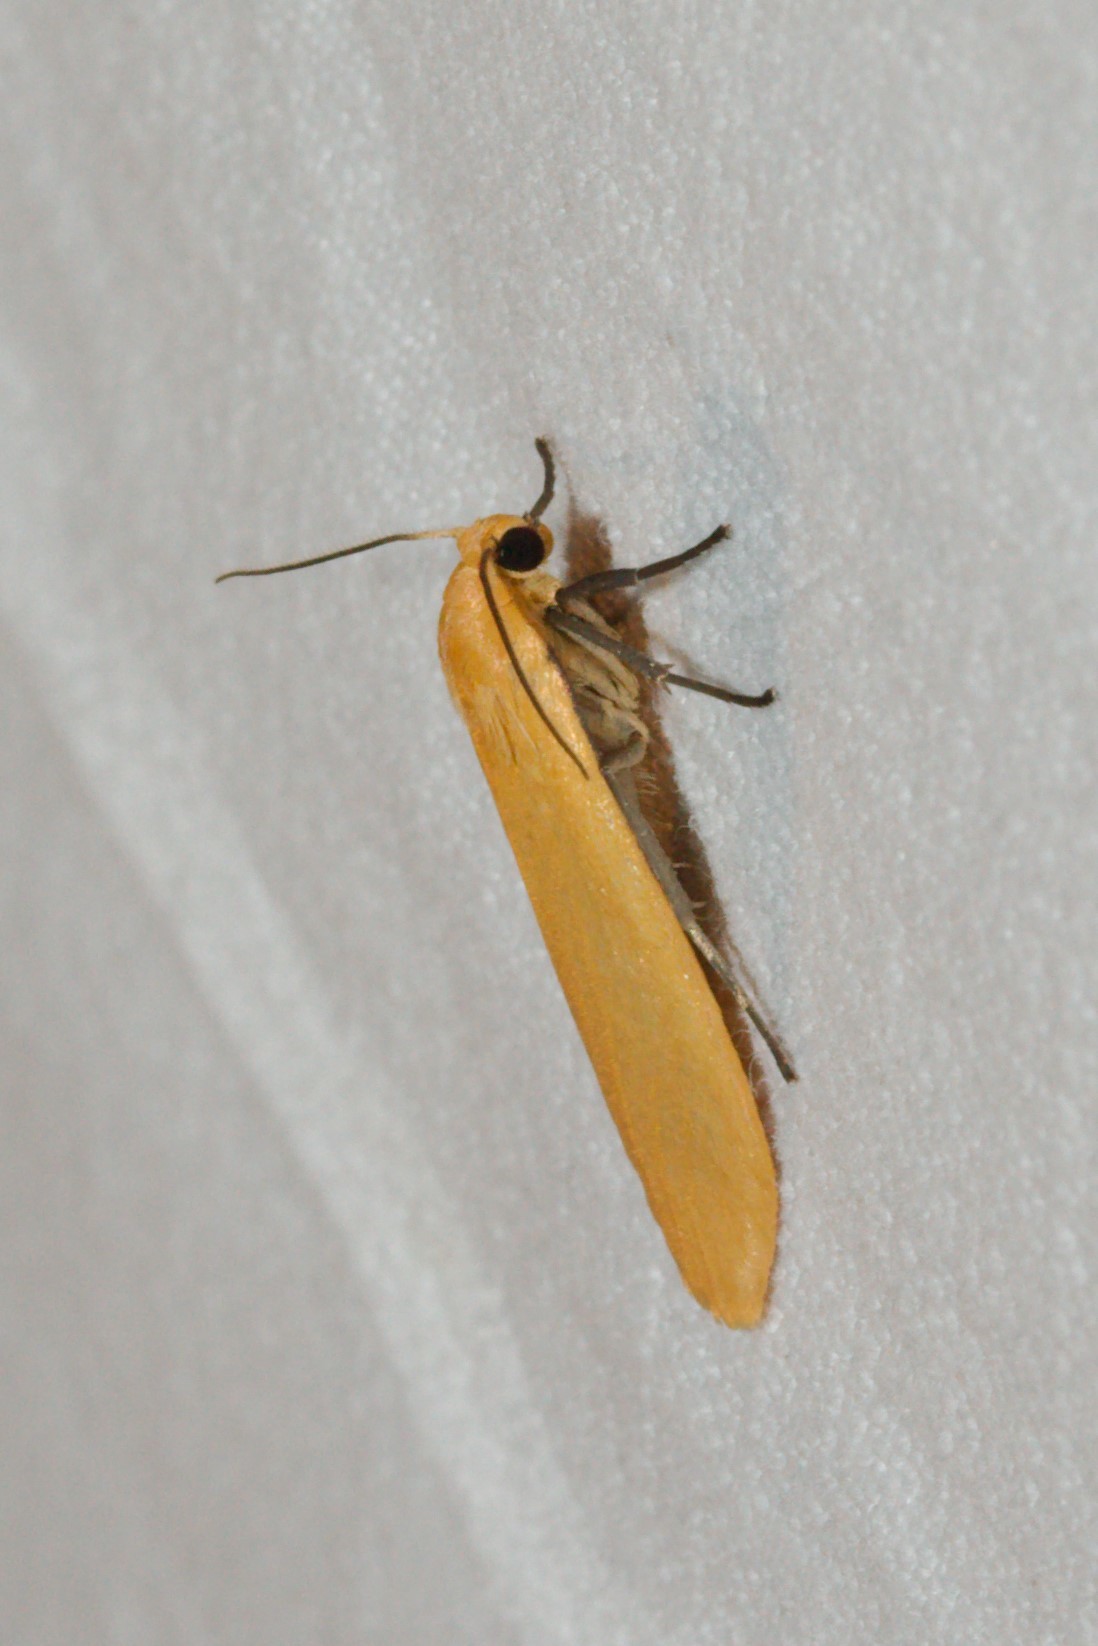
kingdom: Animalia
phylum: Arthropoda
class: Insecta
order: Lepidoptera
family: Erebidae
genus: Wittia
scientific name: Wittia sororcula
